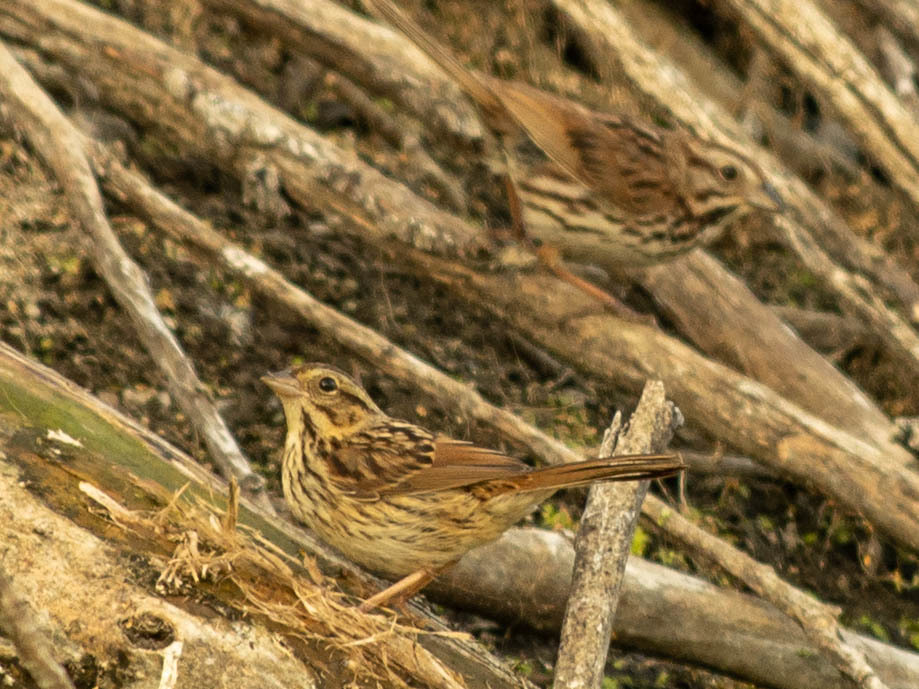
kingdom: Animalia
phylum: Chordata
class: Aves
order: Passeriformes
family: Passerellidae
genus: Melospiza
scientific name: Melospiza melodia
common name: Song sparrow
